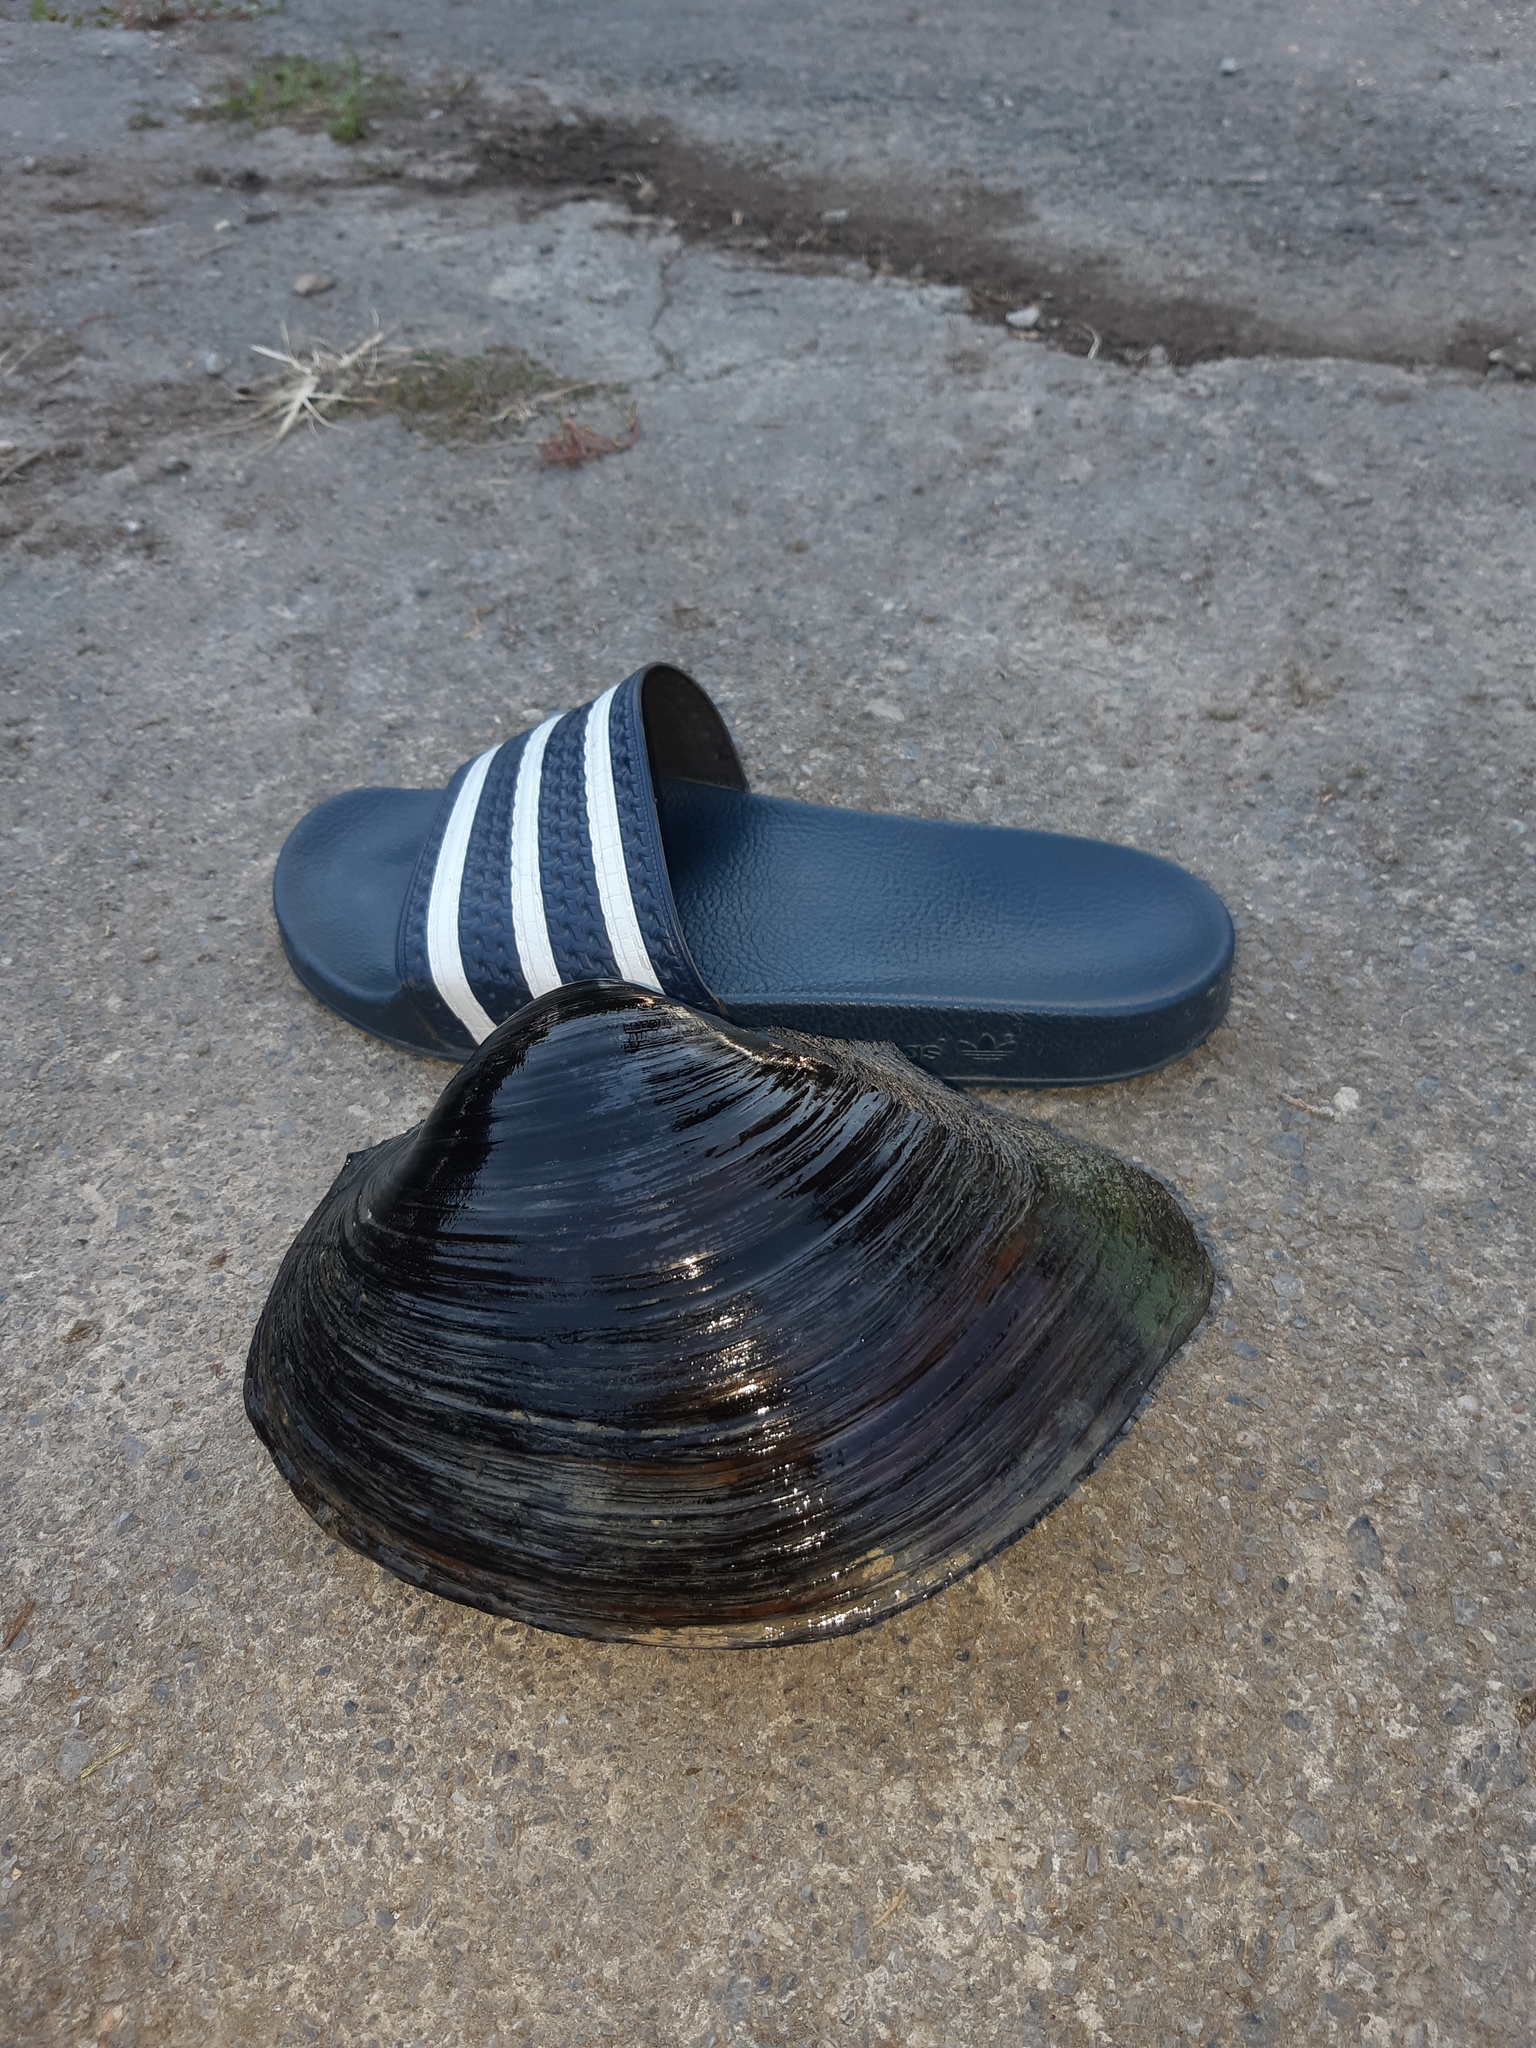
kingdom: Animalia
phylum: Mollusca
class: Bivalvia
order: Unionida
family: Unionidae
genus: Sinanodonta
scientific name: Sinanodonta woodiana
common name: Chinese pond mussel
